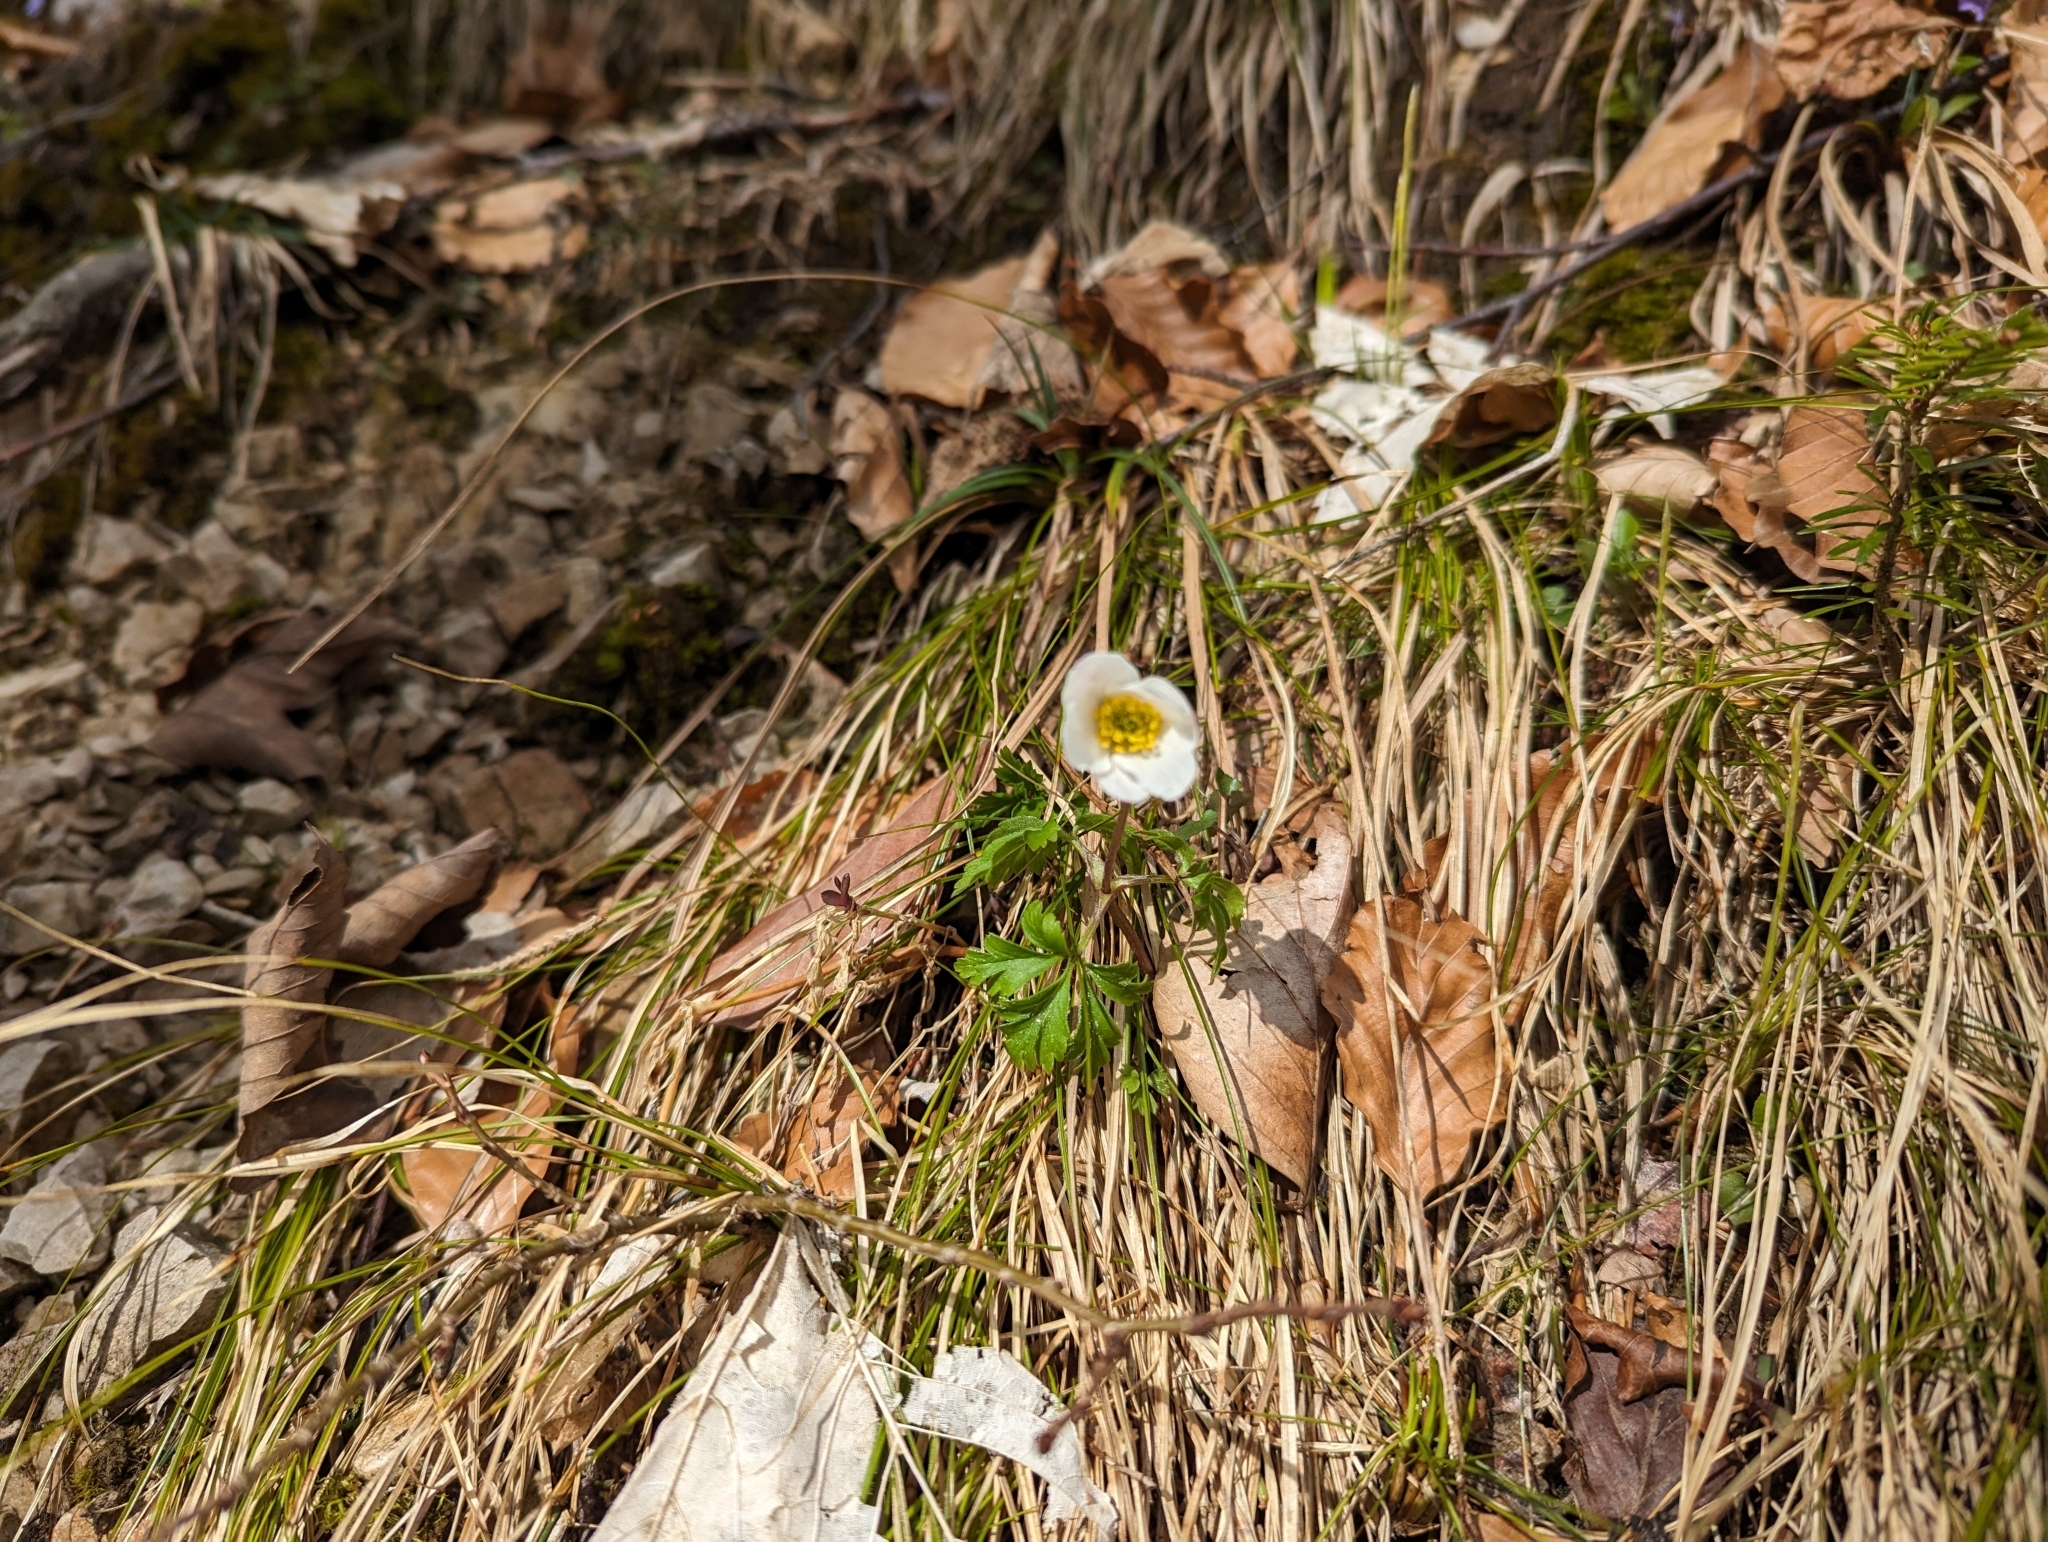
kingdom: Plantae
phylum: Tracheophyta
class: Magnoliopsida
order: Ranunculales
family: Ranunculaceae
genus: Anemone
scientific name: Anemone nemorosa
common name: Wood anemone
